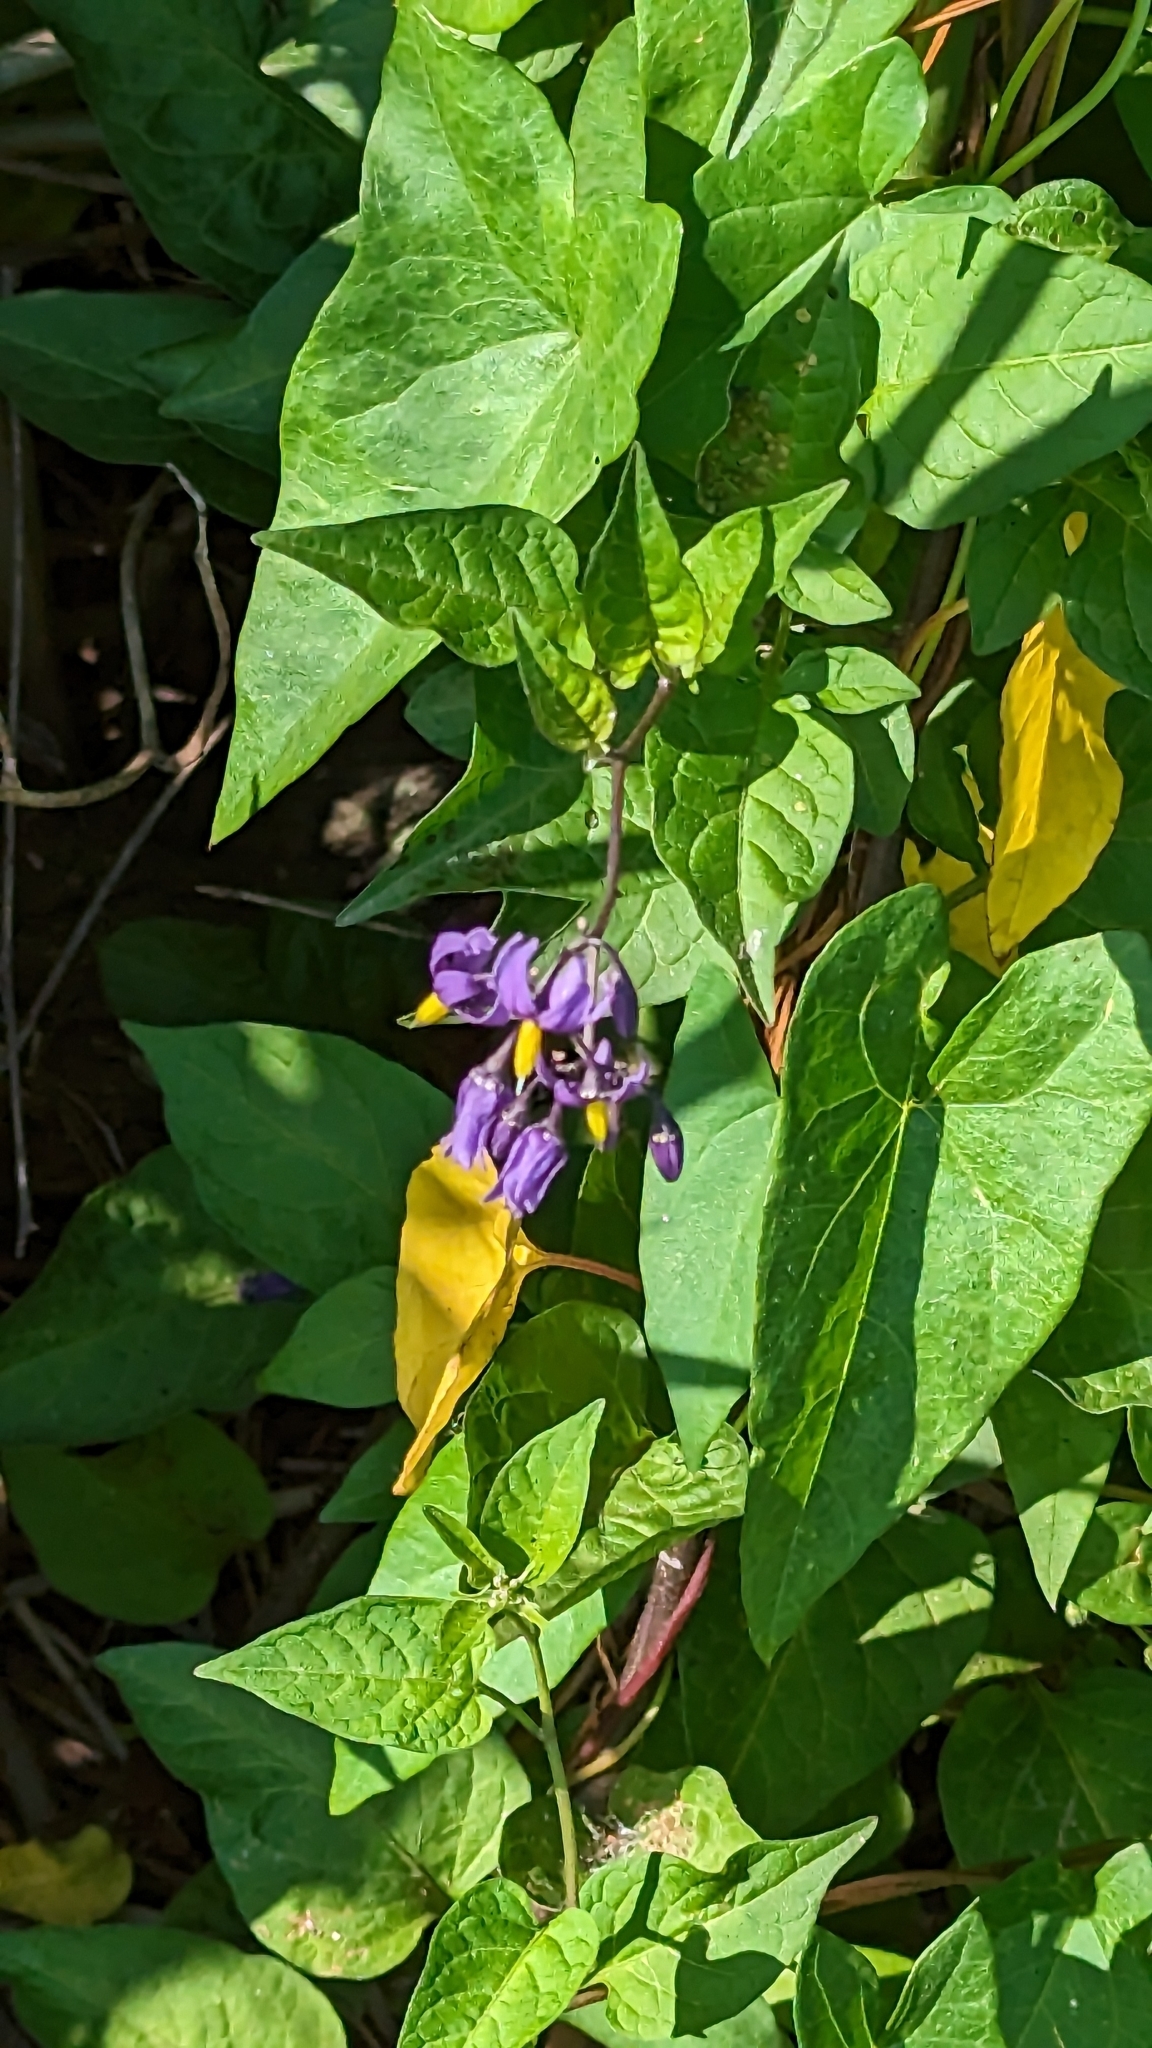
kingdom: Plantae
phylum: Tracheophyta
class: Magnoliopsida
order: Solanales
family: Solanaceae
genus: Solanum
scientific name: Solanum dulcamara
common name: Climbing nightshade
